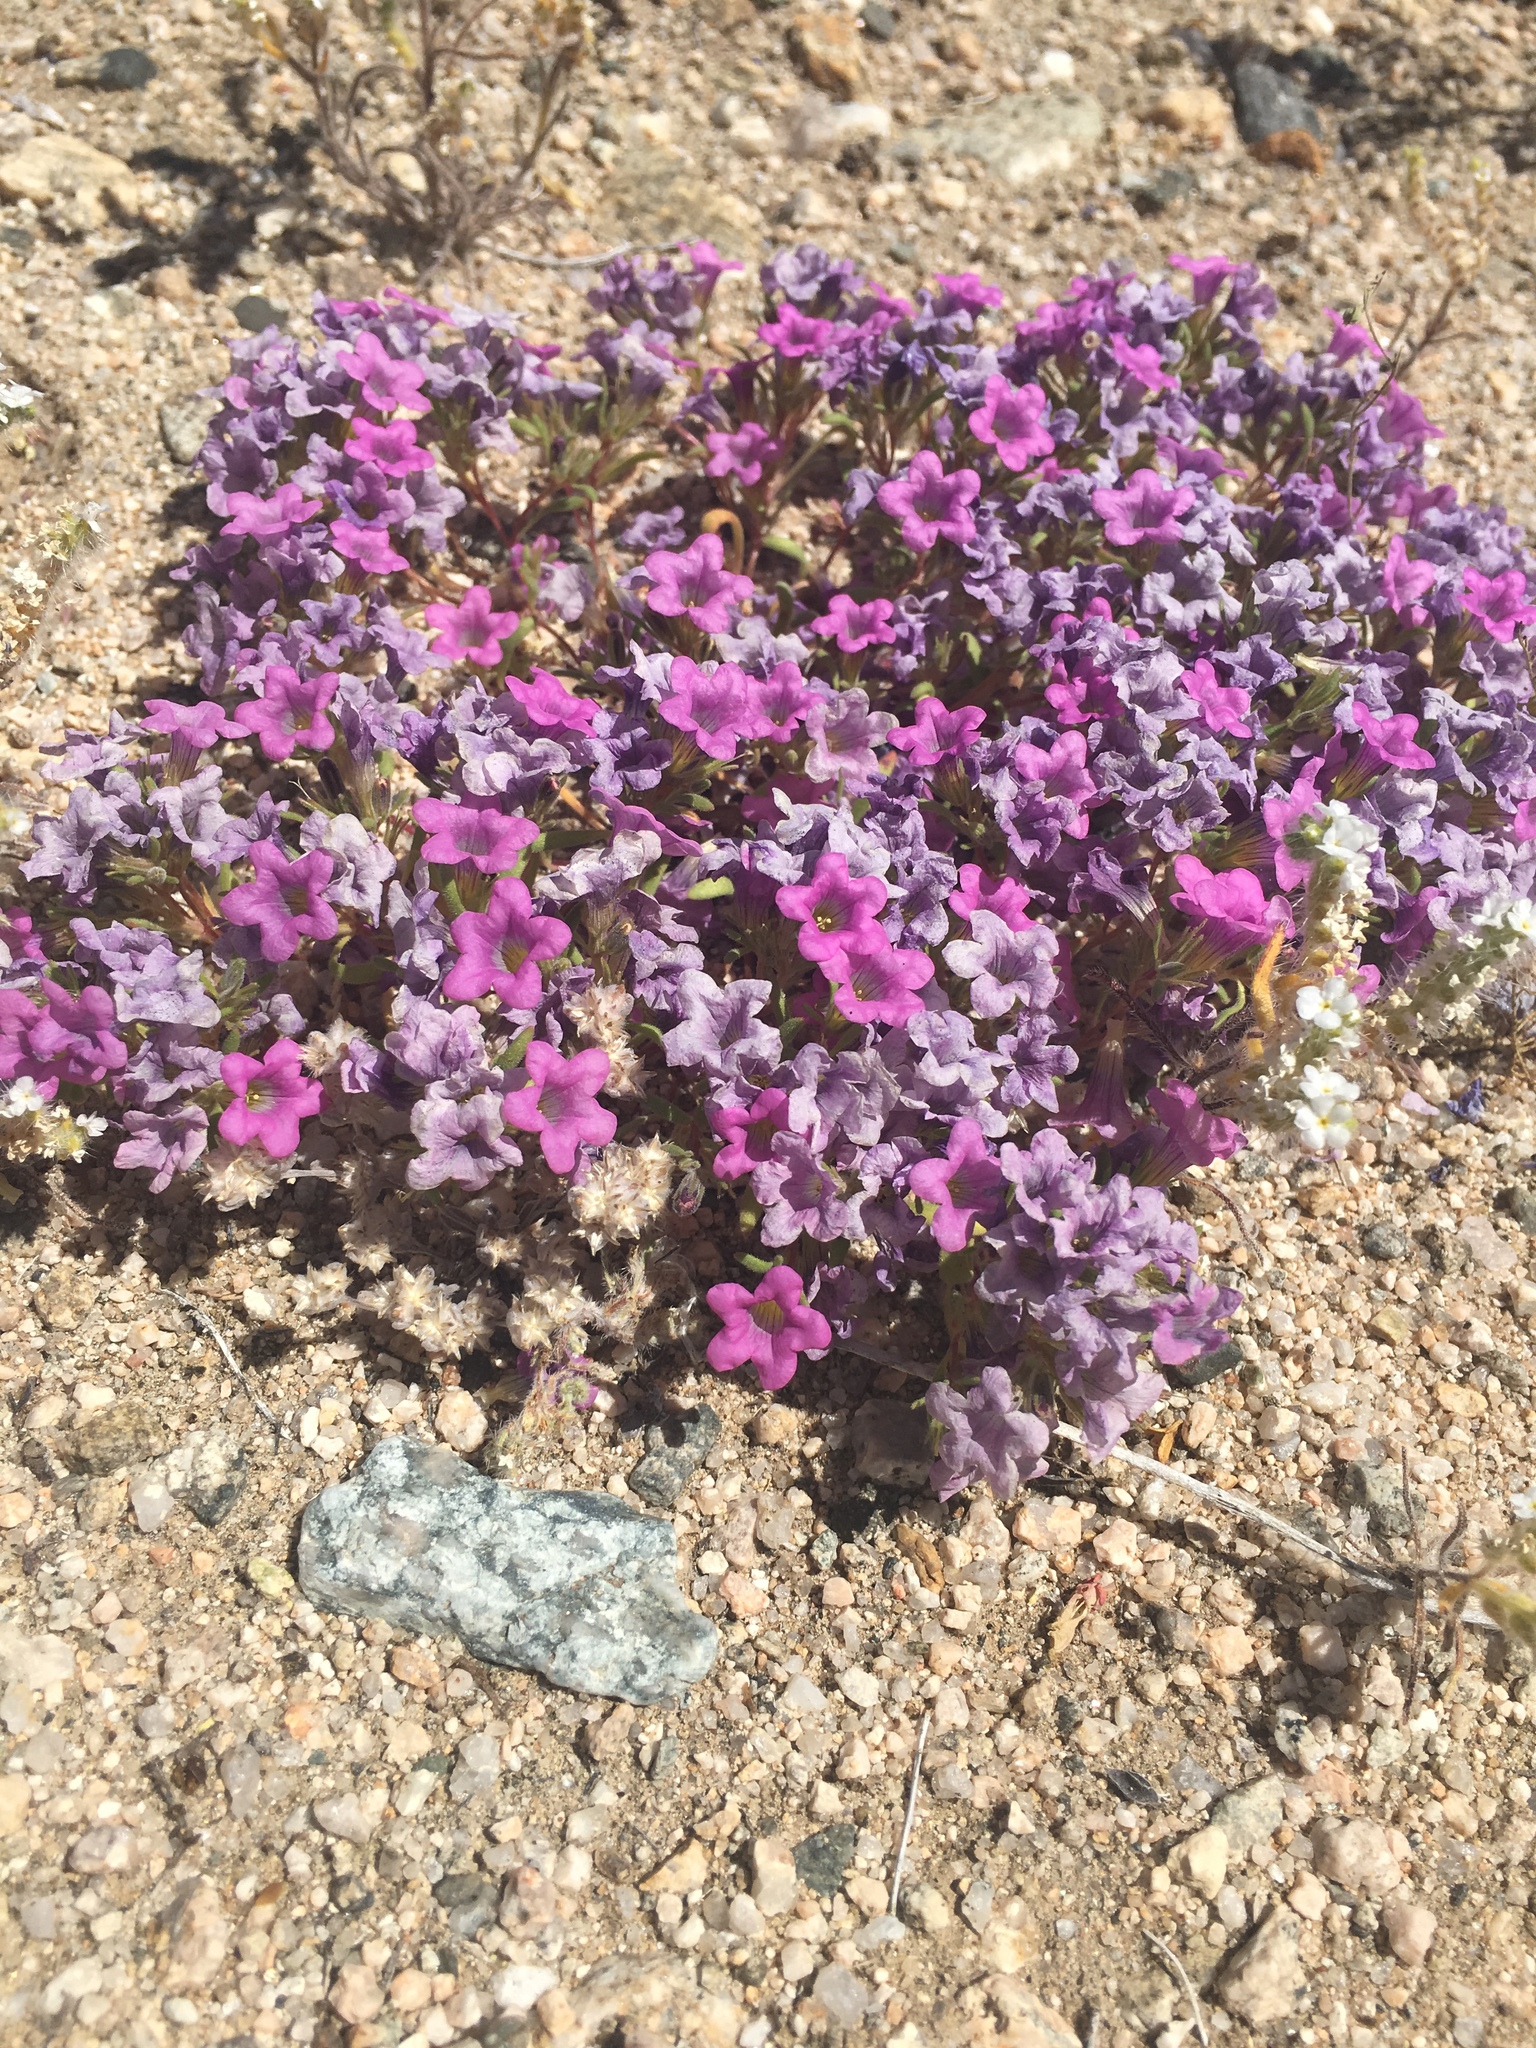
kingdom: Plantae
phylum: Tracheophyta
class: Magnoliopsida
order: Boraginales
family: Namaceae
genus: Nama
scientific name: Nama demissa
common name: Leafy nama
